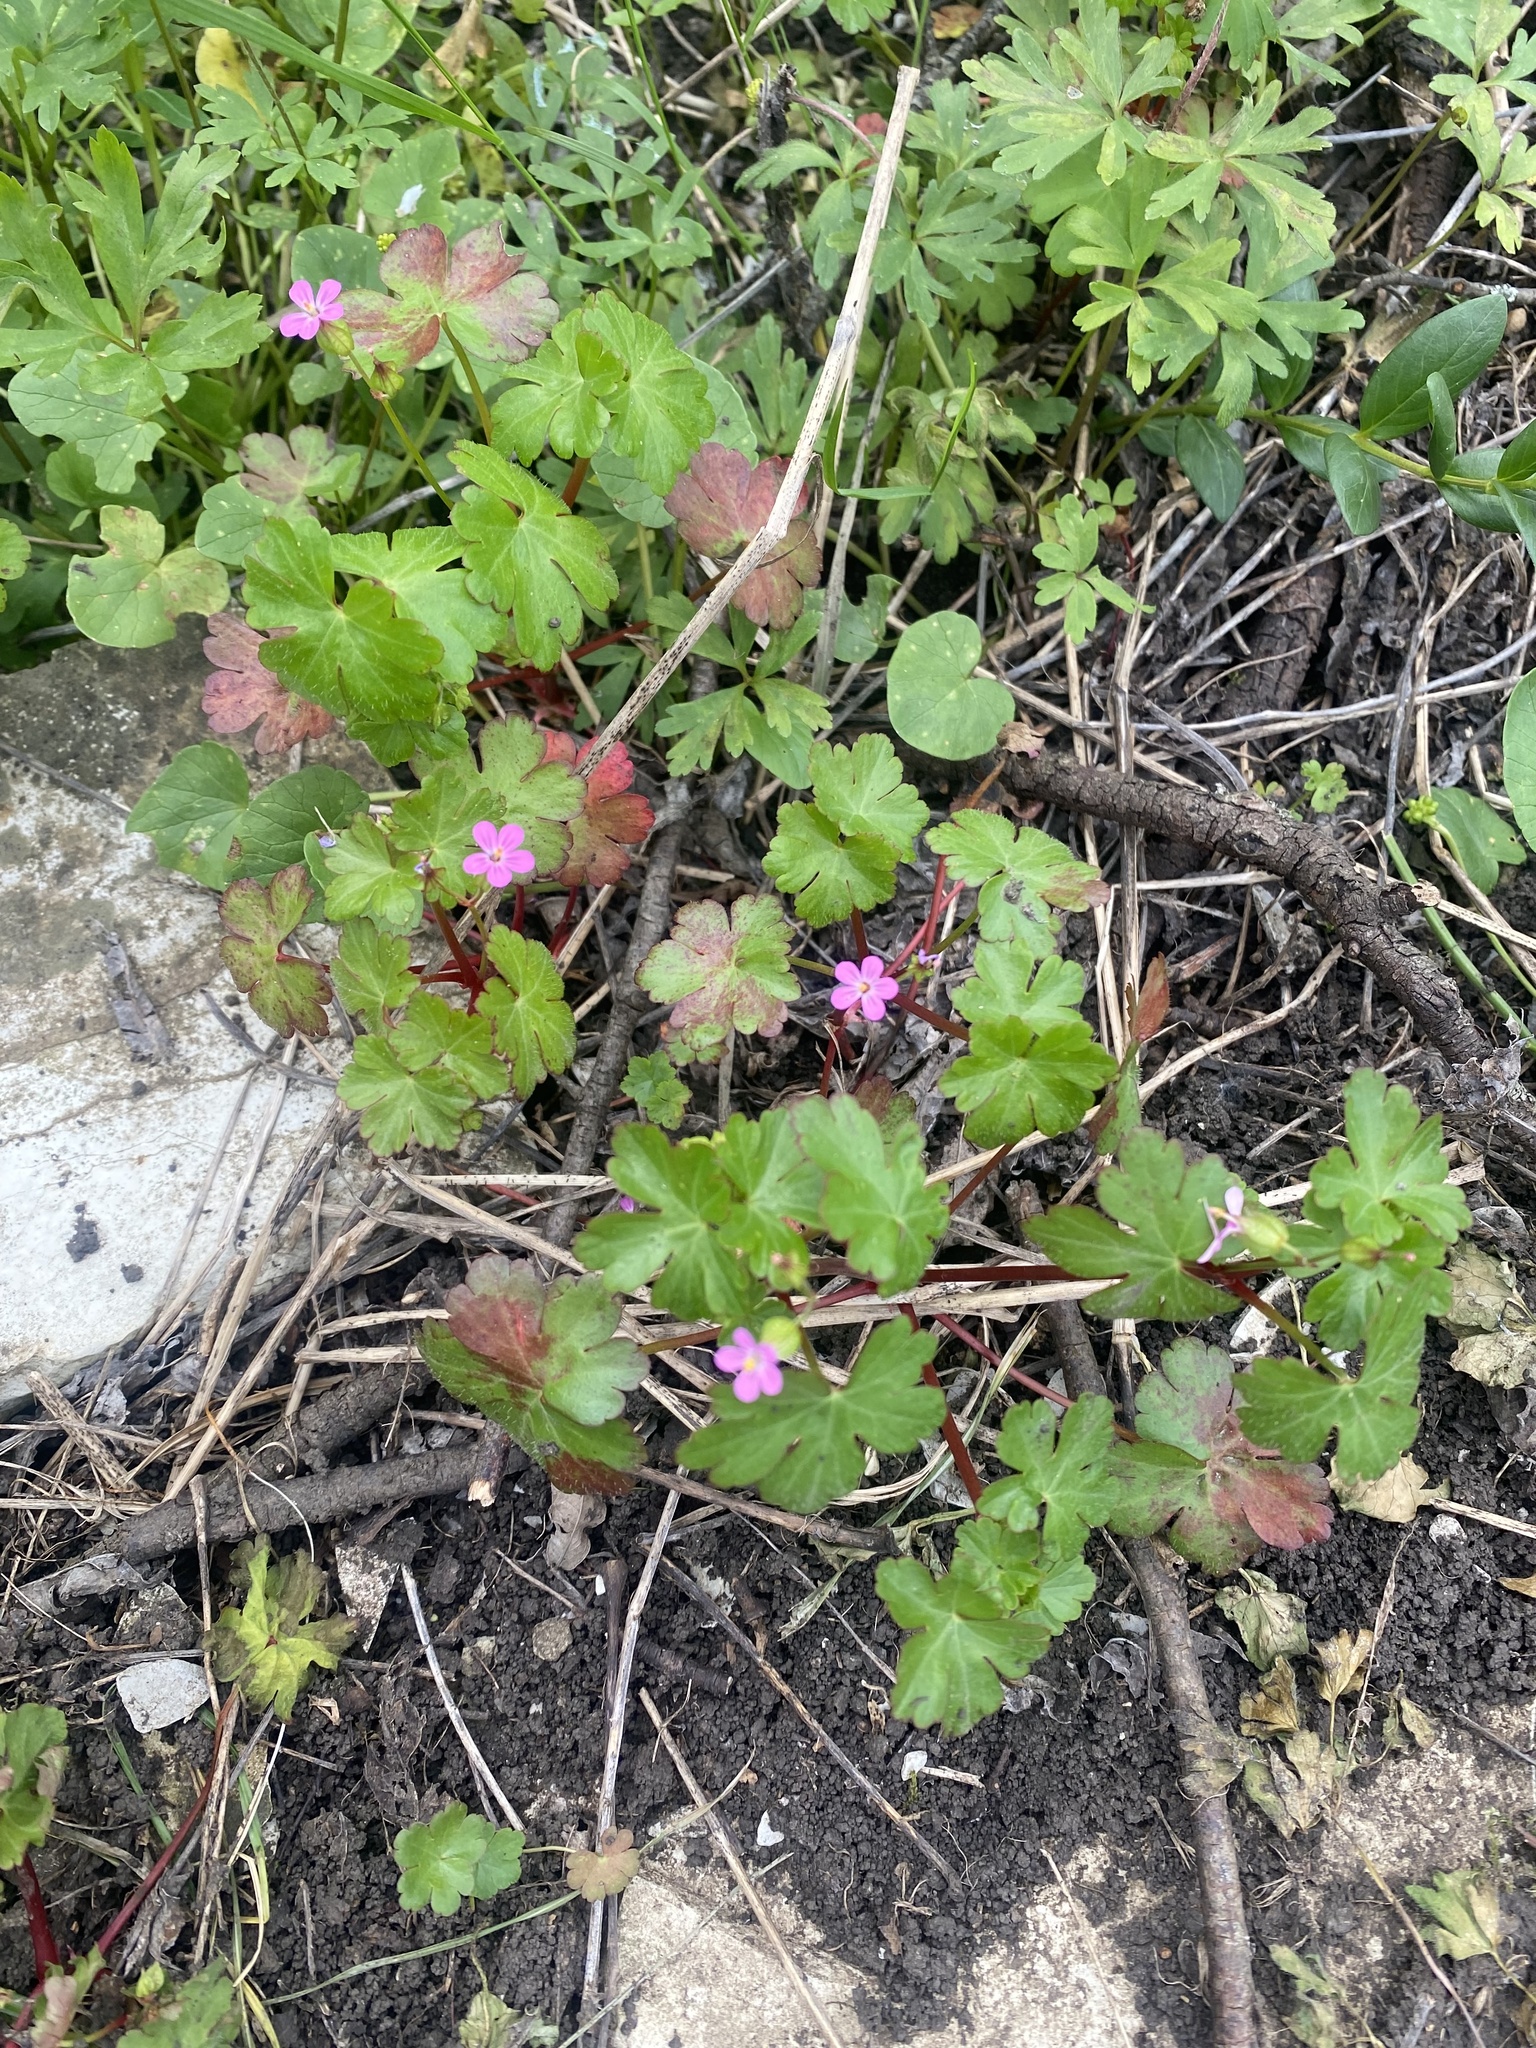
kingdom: Plantae
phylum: Tracheophyta
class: Magnoliopsida
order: Geraniales
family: Geraniaceae
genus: Geranium
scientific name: Geranium lucidum
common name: Shining crane's-bill
